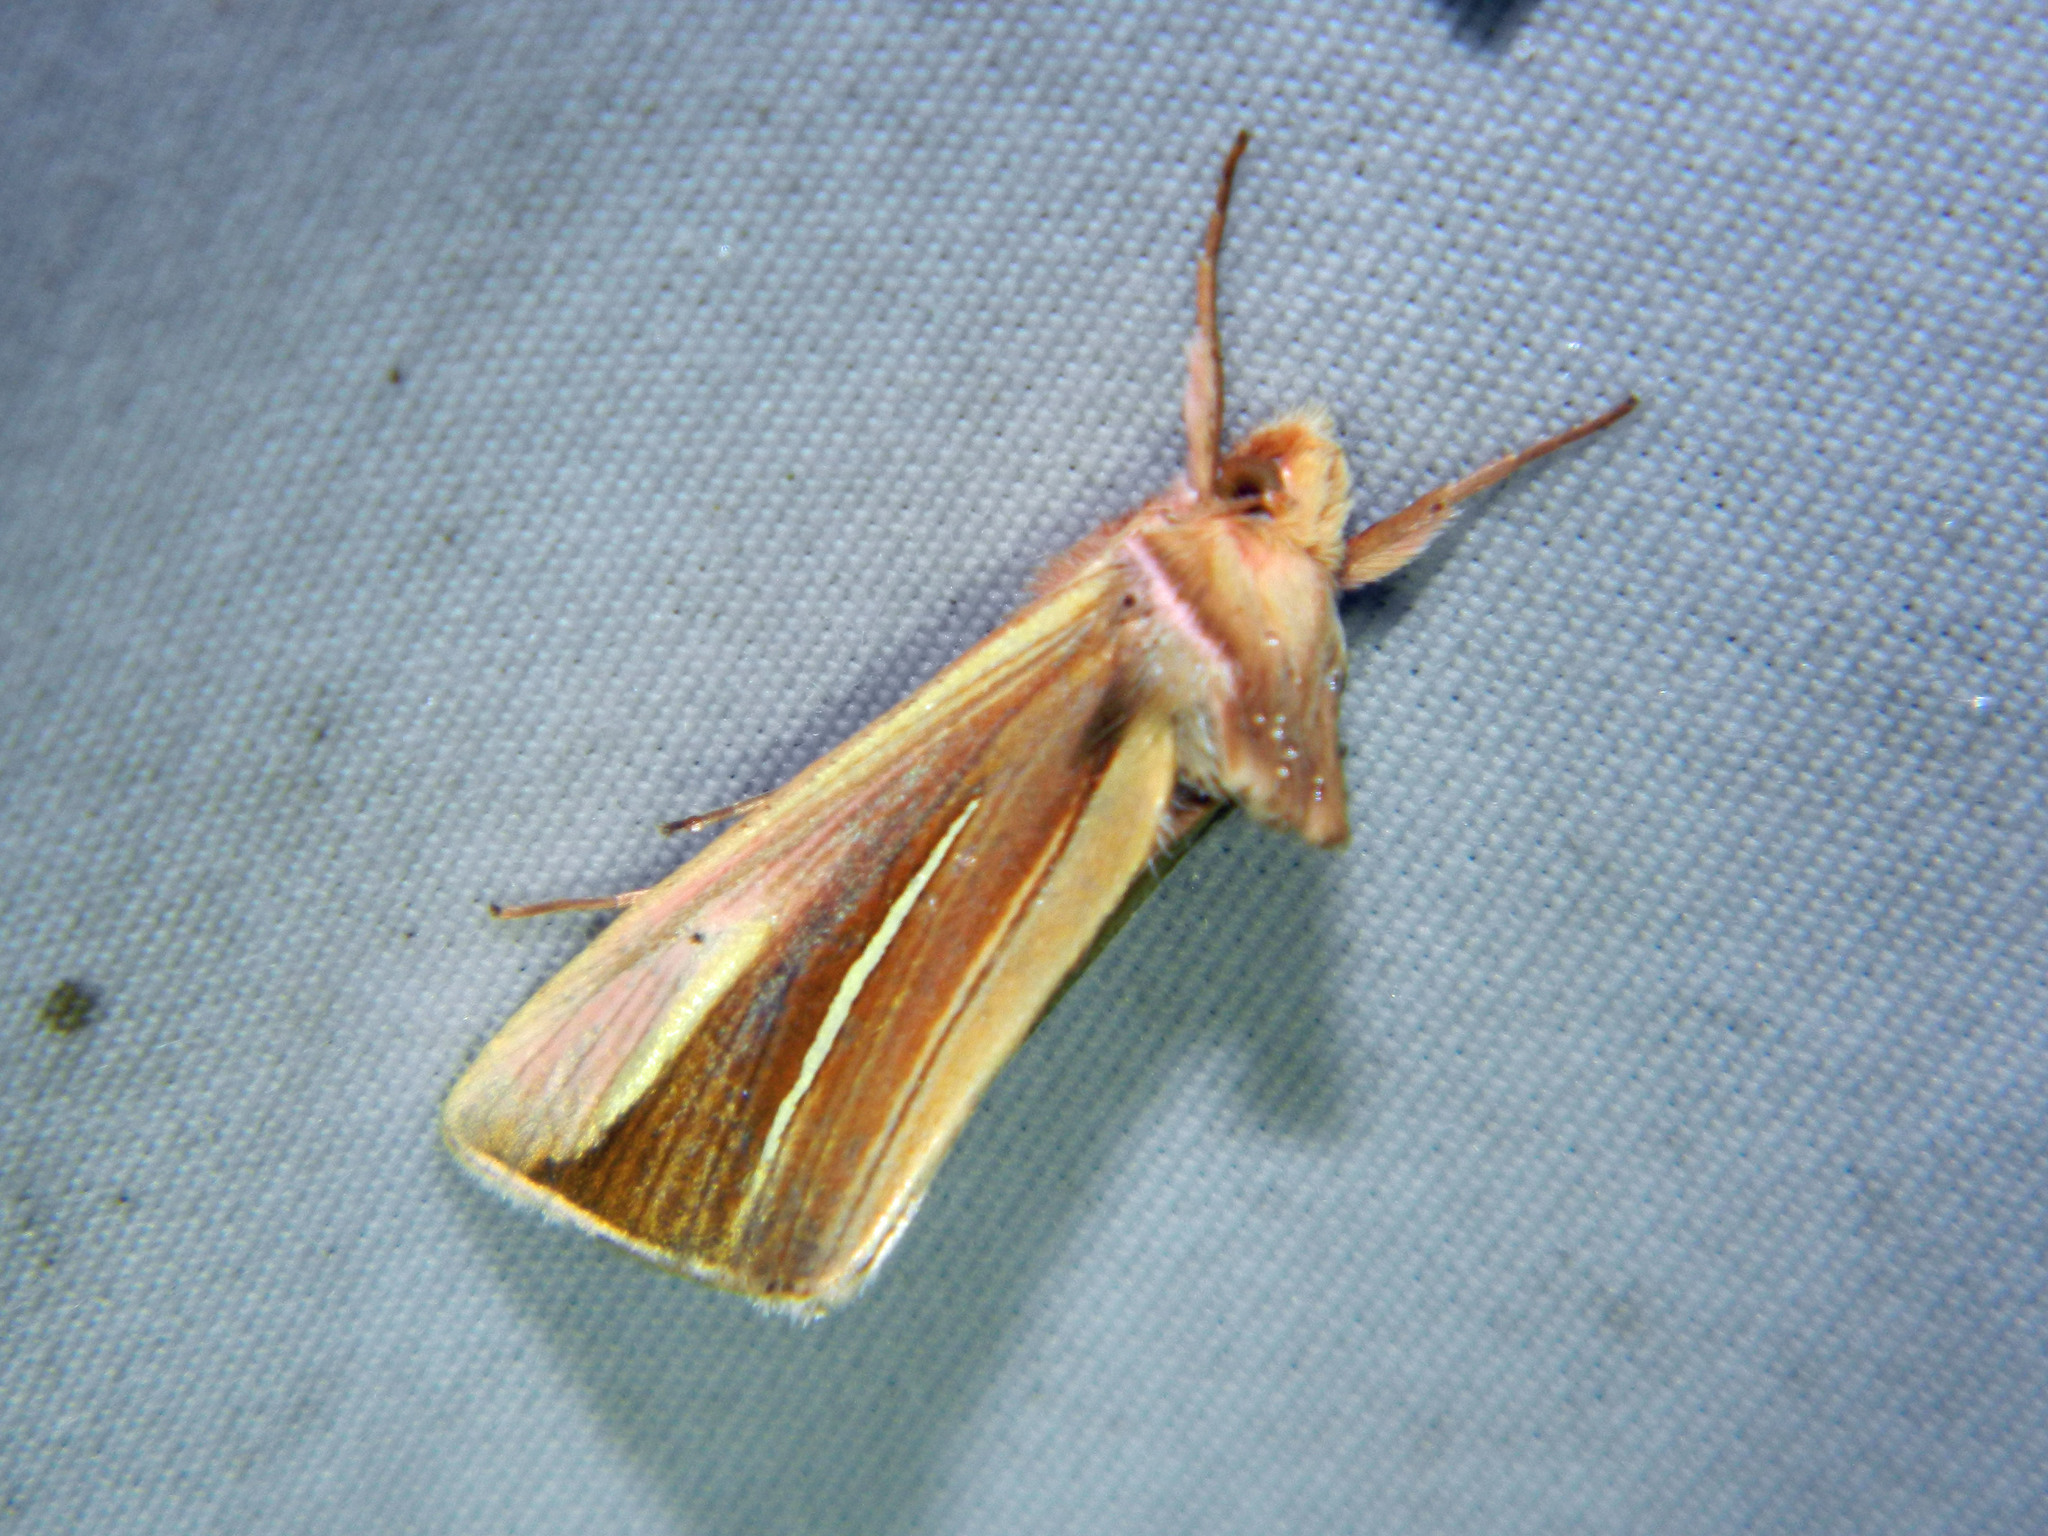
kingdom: Animalia
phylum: Arthropoda
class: Insecta
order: Lepidoptera
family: Noctuidae
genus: Plusia
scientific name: Plusia venusta
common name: White-streaked looper moth
